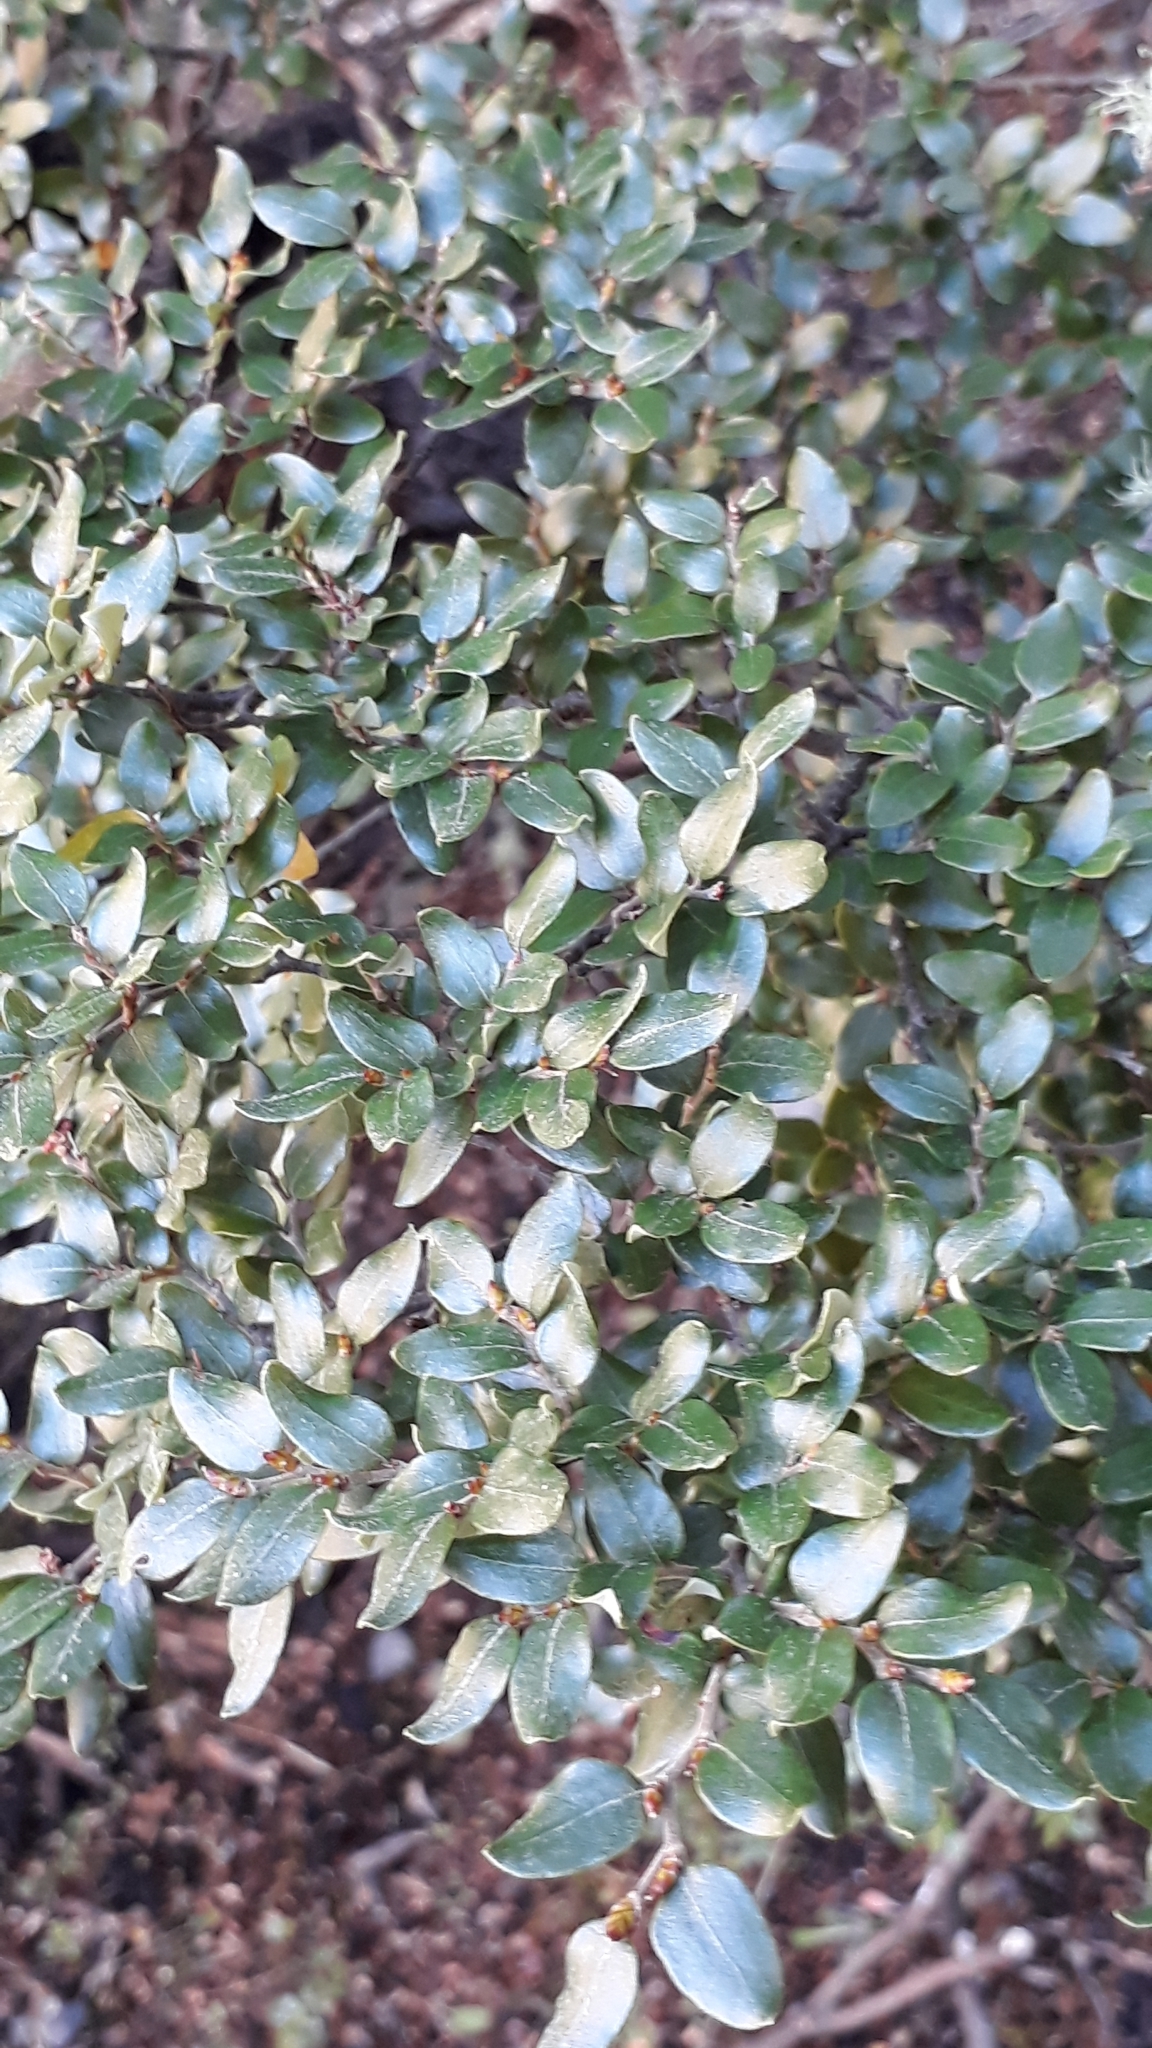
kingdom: Plantae
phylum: Tracheophyta
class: Magnoliopsida
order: Fagales
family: Nothofagaceae
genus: Nothofagus
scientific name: Nothofagus cliffortioides
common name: Mountain beech
